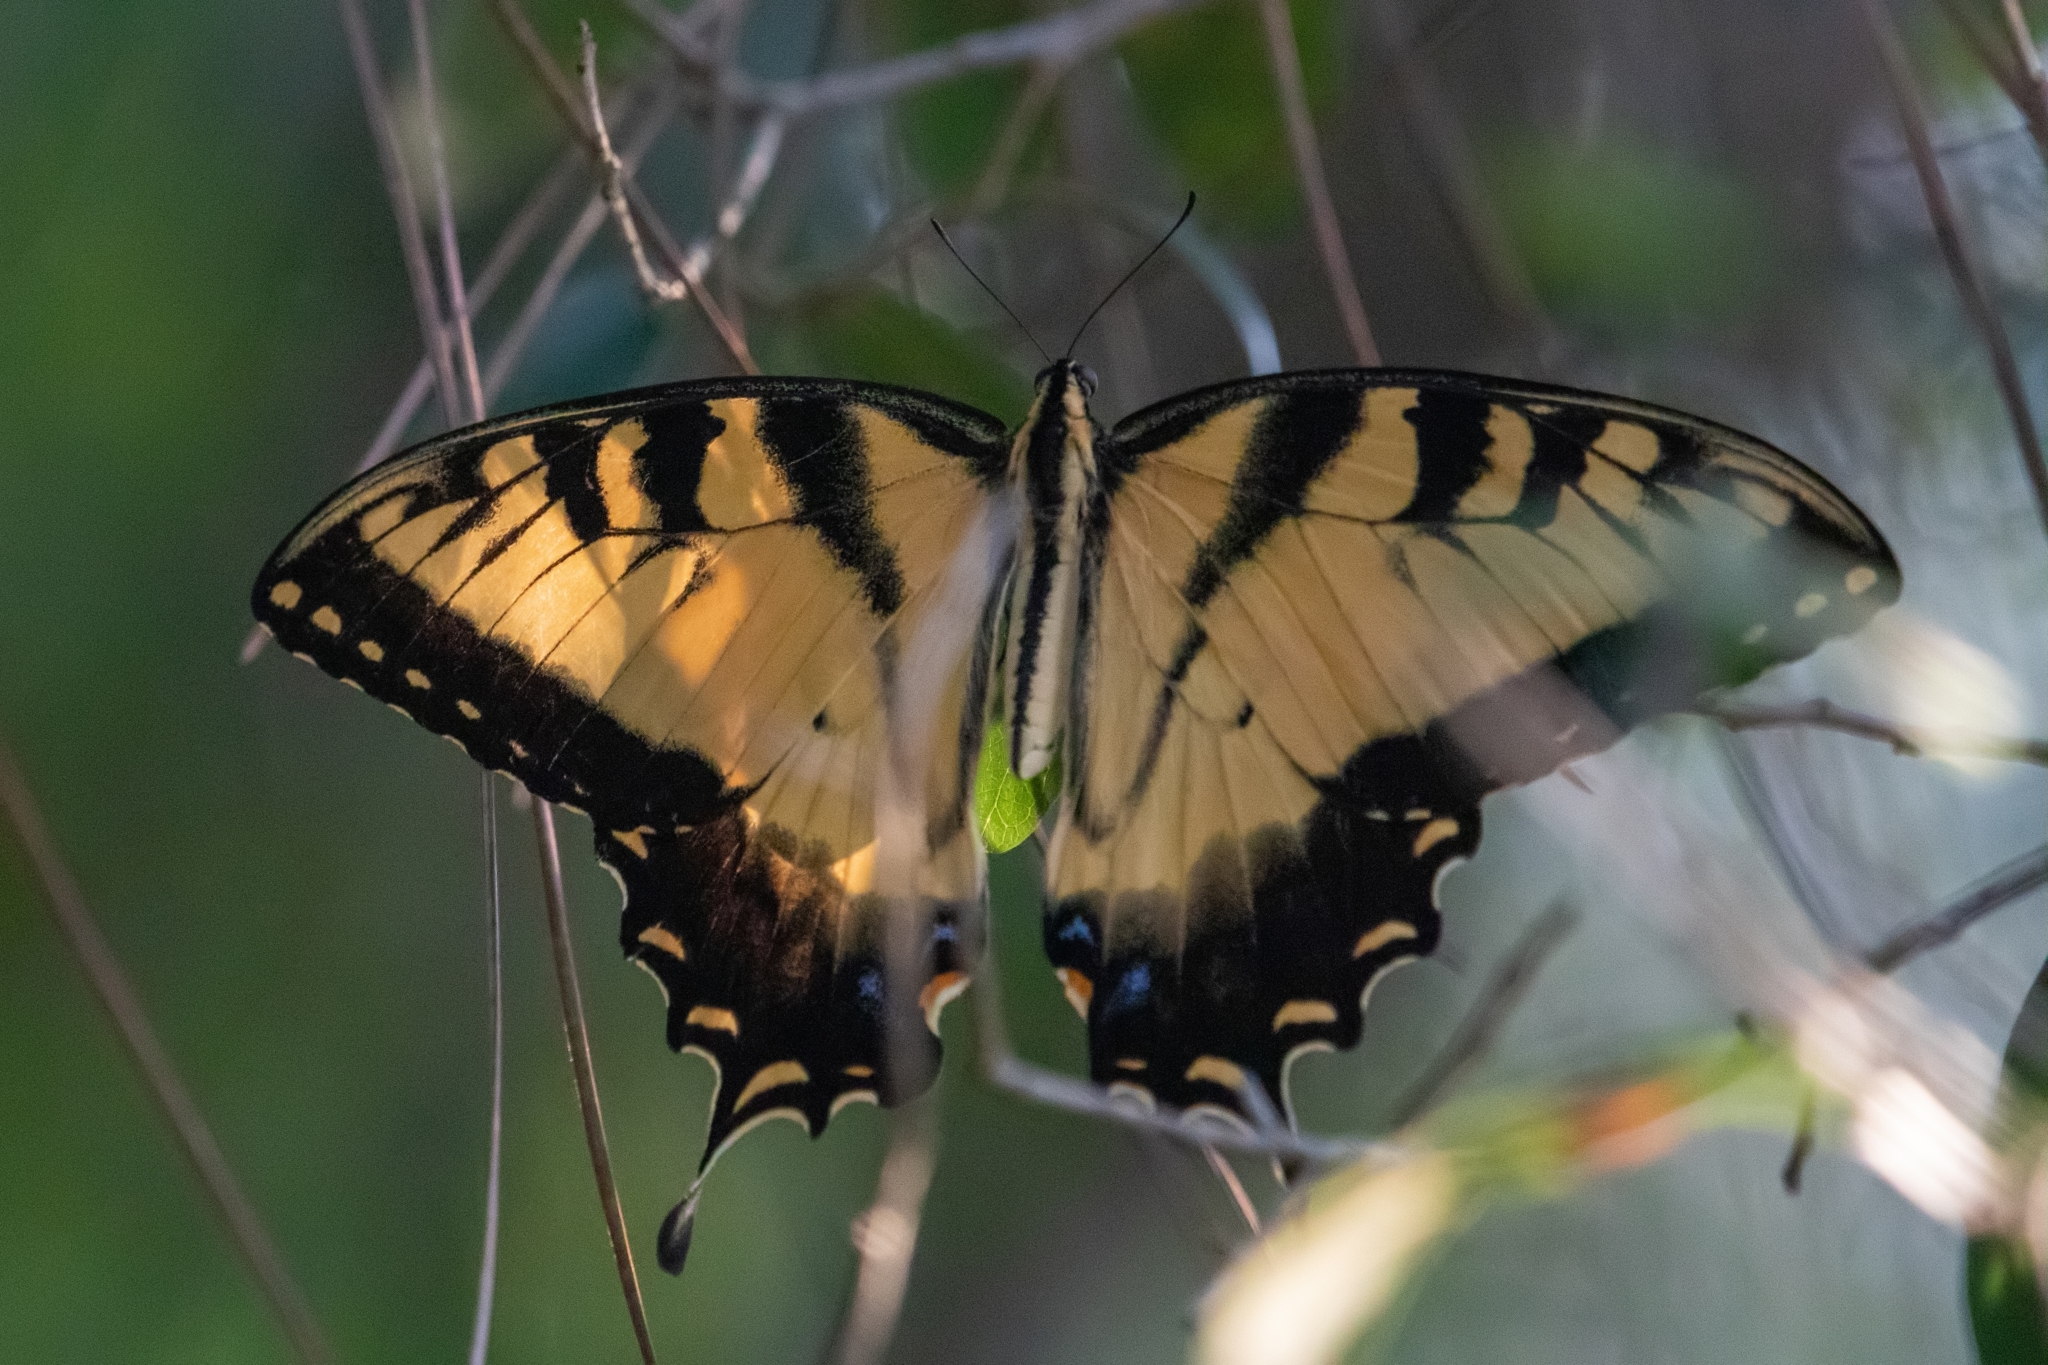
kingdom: Animalia
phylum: Arthropoda
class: Insecta
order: Lepidoptera
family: Papilionidae
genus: Papilio
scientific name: Papilio glaucus
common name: Tiger swallowtail
